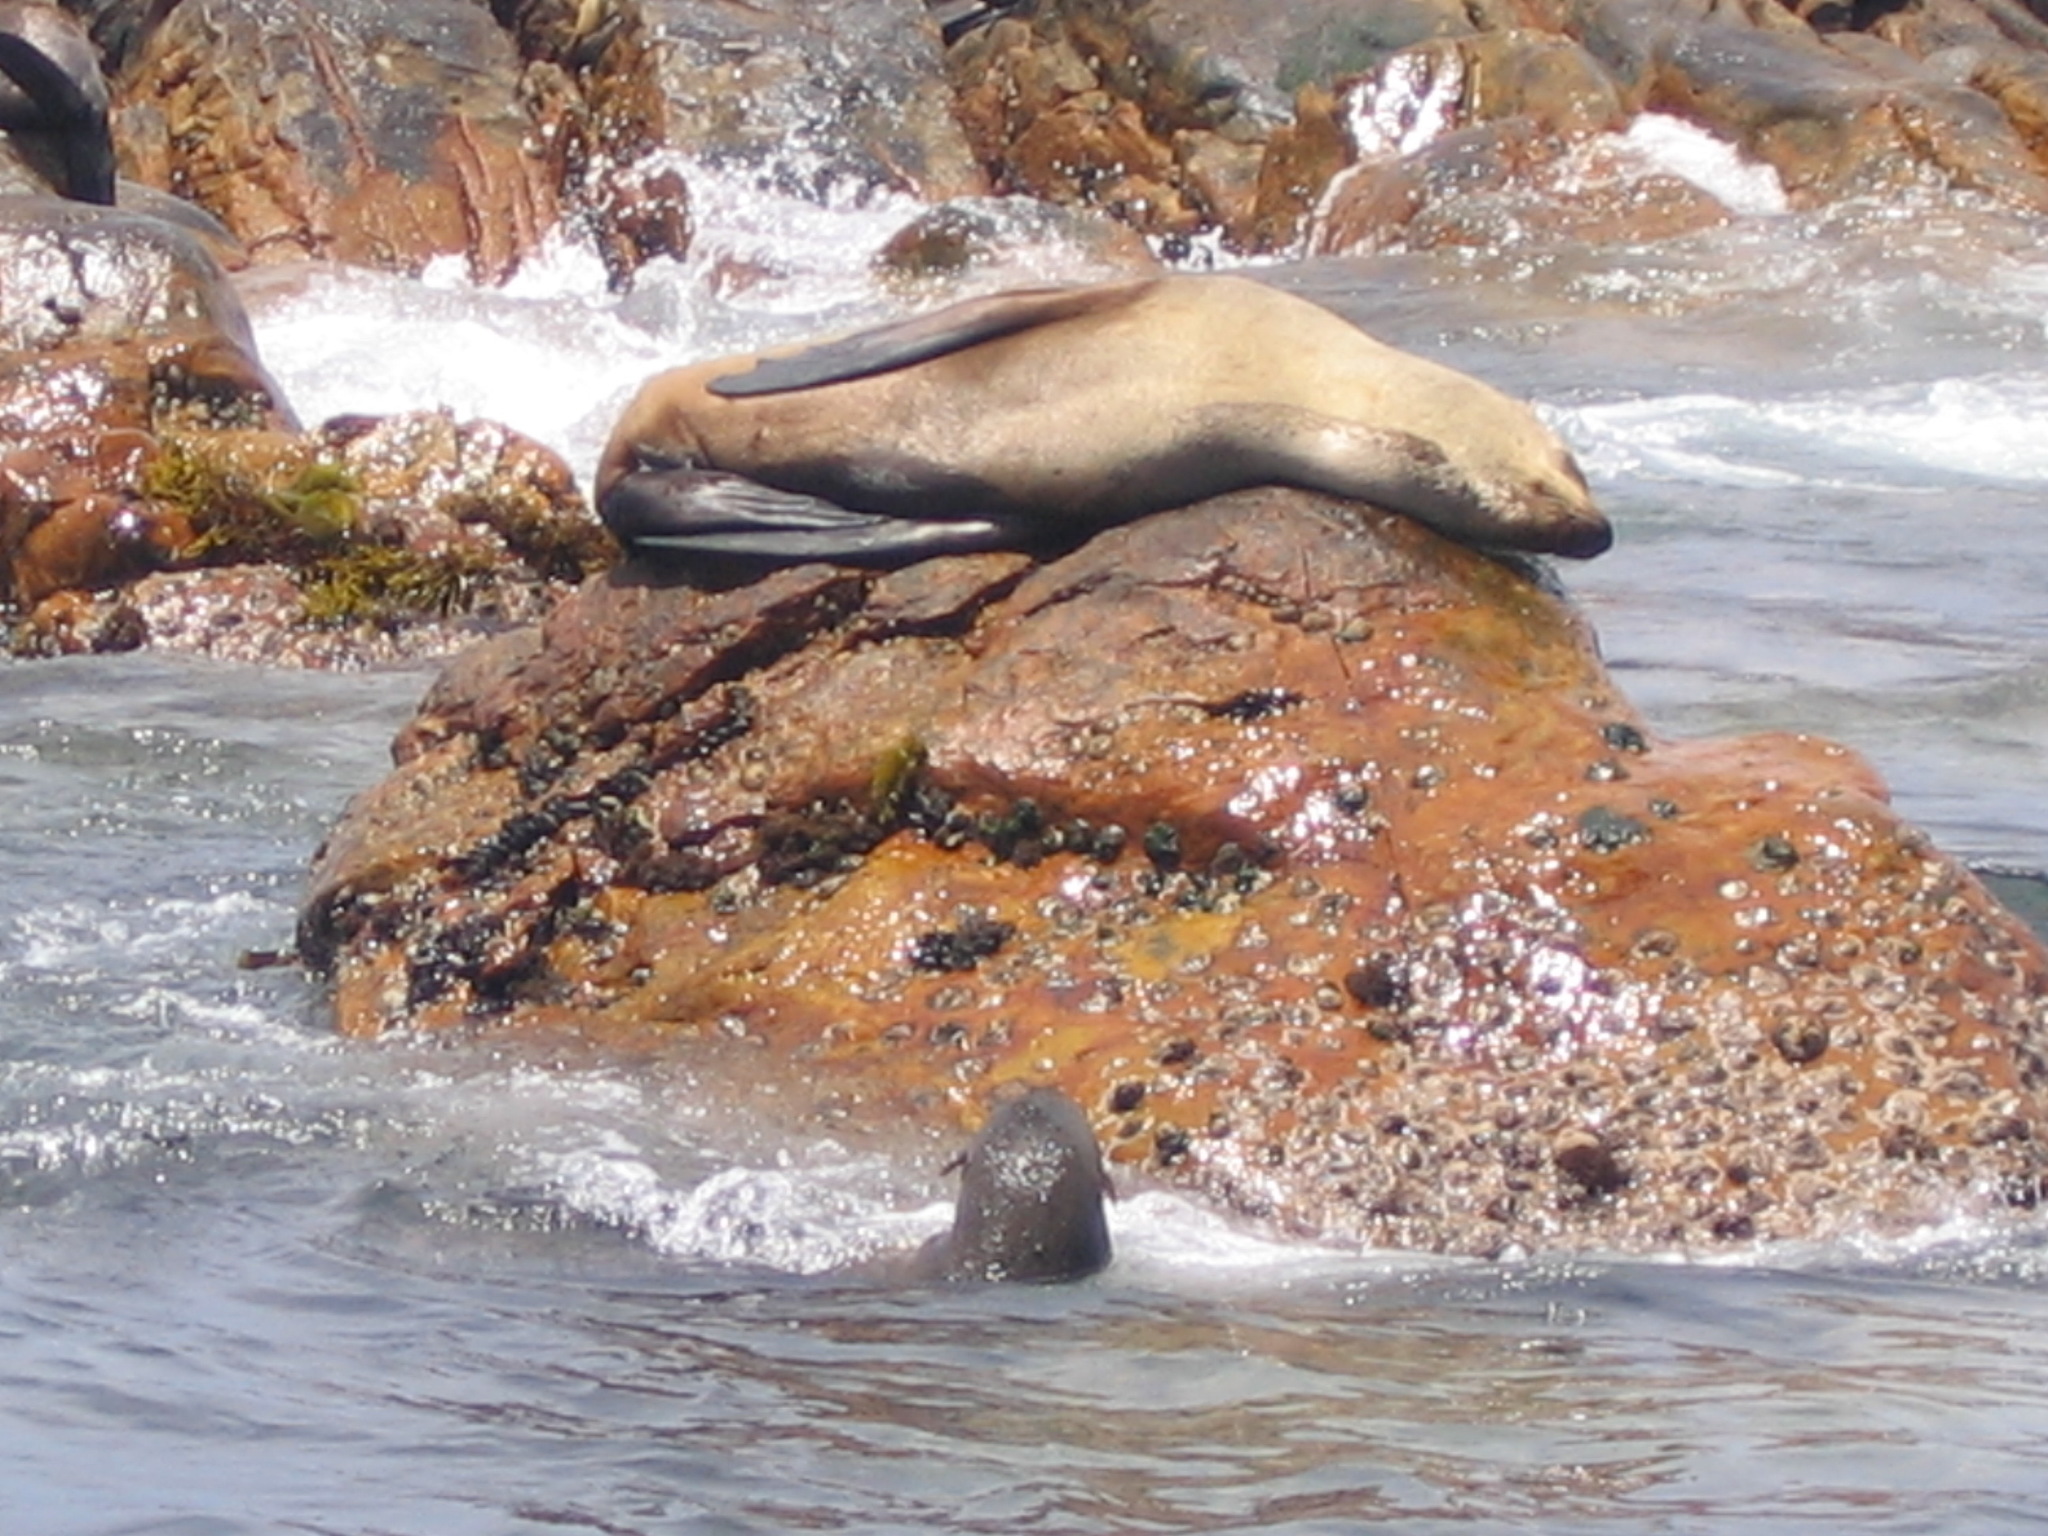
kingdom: Animalia
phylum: Chordata
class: Mammalia
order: Carnivora
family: Otariidae
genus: Arctocephalus
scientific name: Arctocephalus pusillus
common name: Brown fur seal
